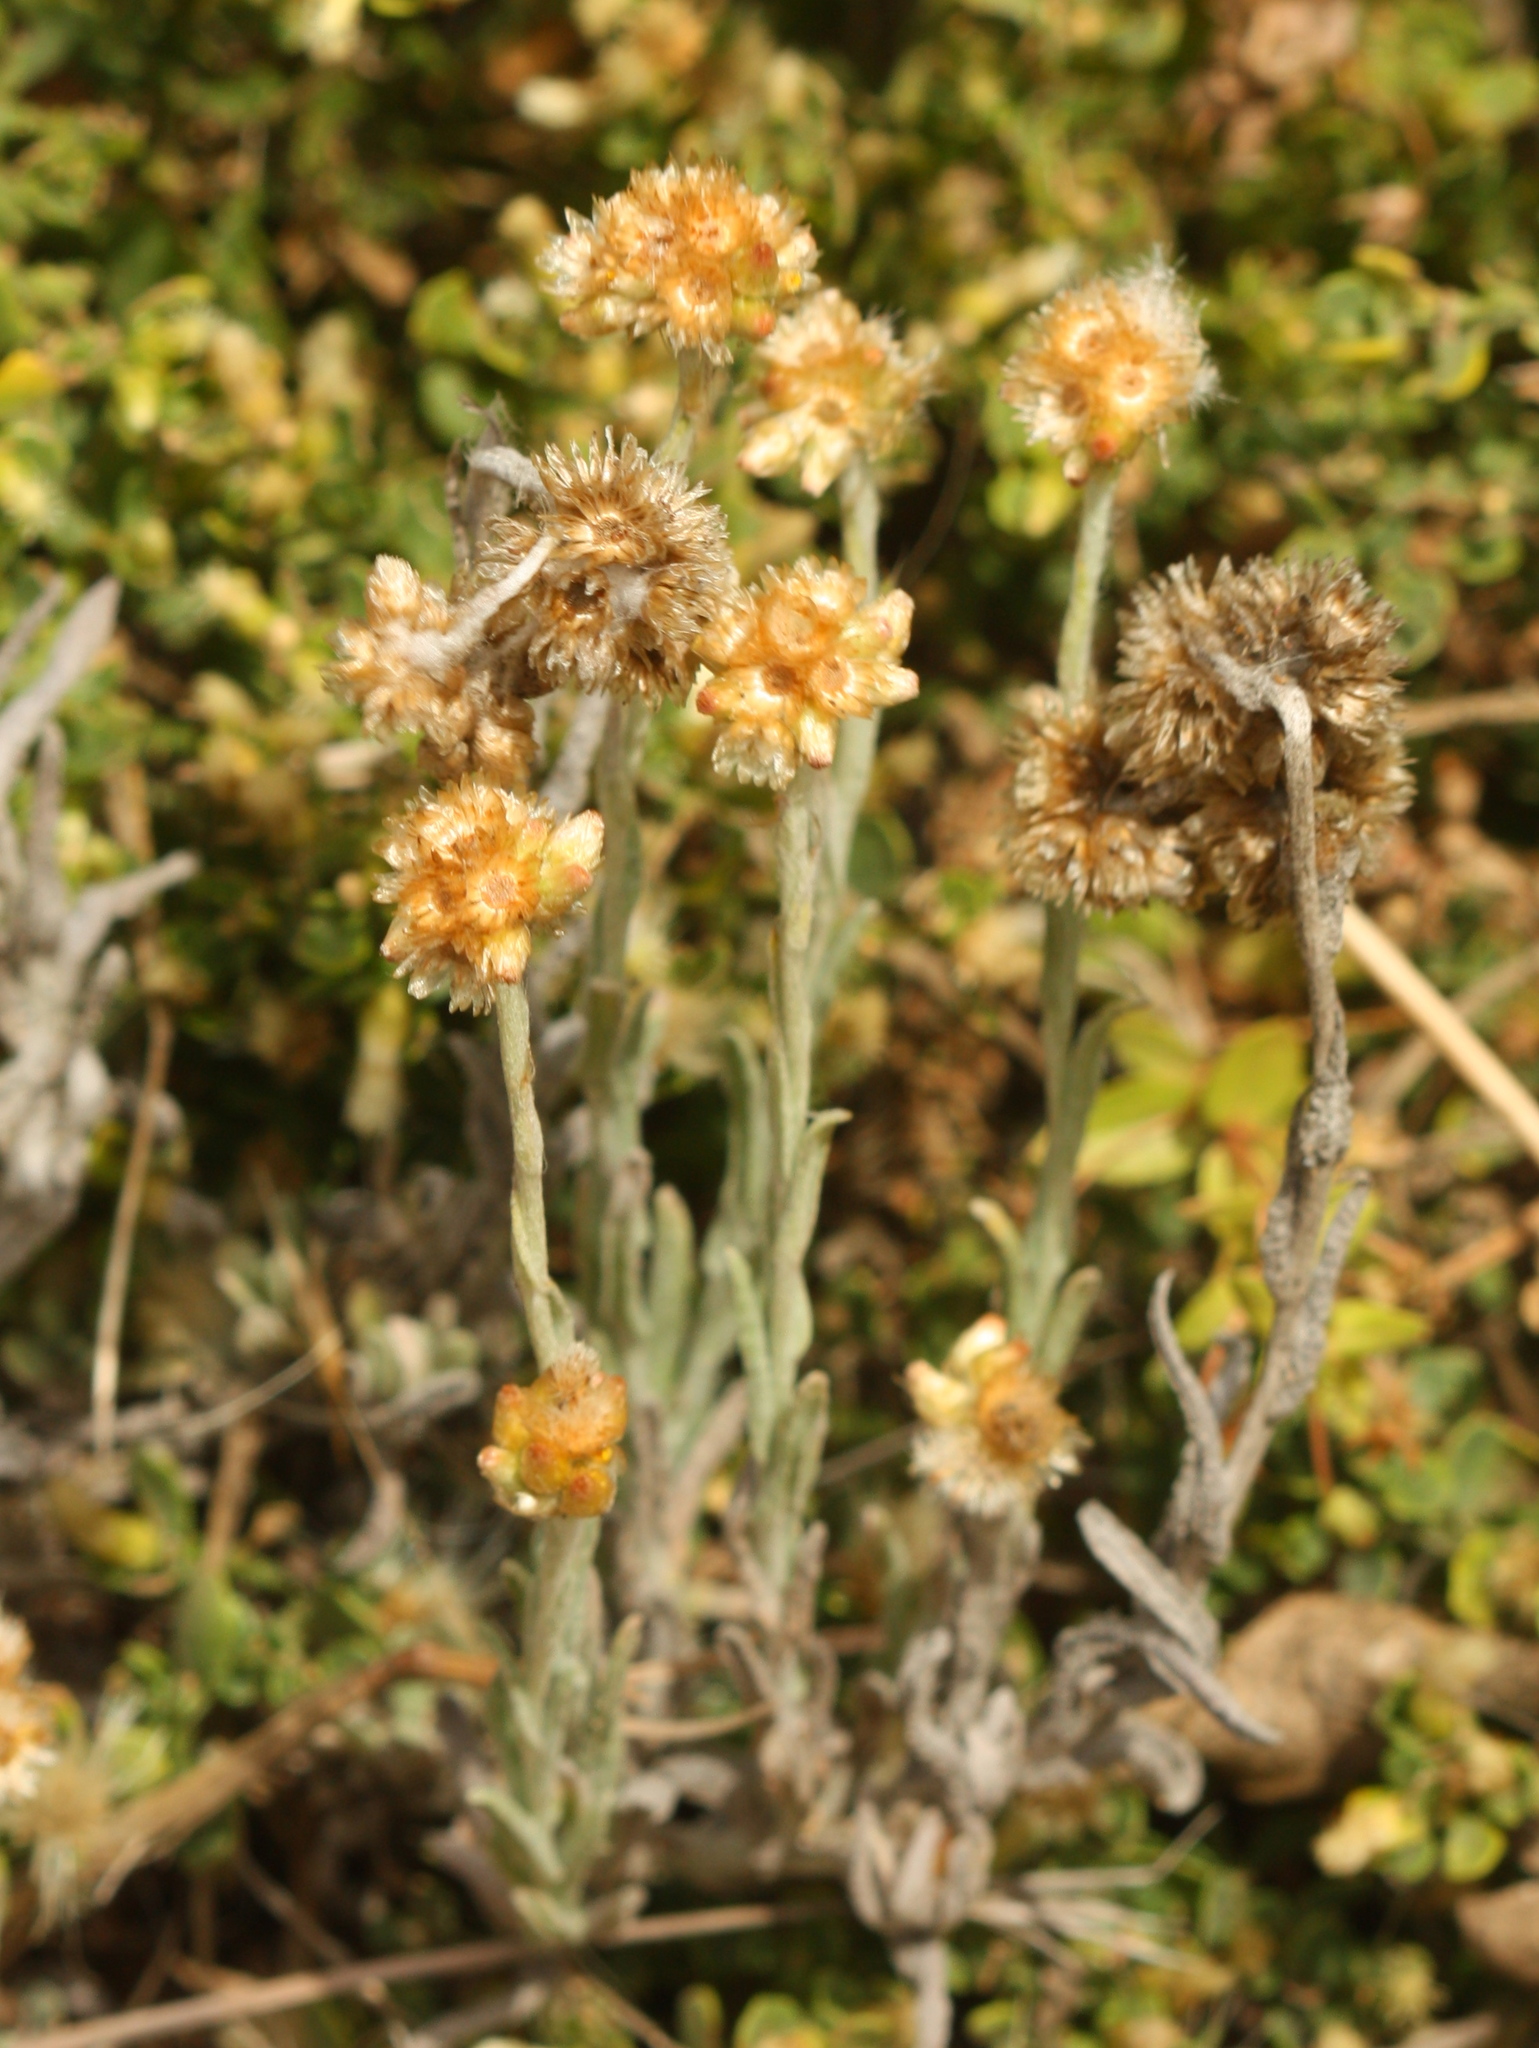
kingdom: Plantae
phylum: Tracheophyta
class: Magnoliopsida
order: Asterales
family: Asteraceae
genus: Helichrysum
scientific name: Helichrysum luteoalbum
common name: Daisy
